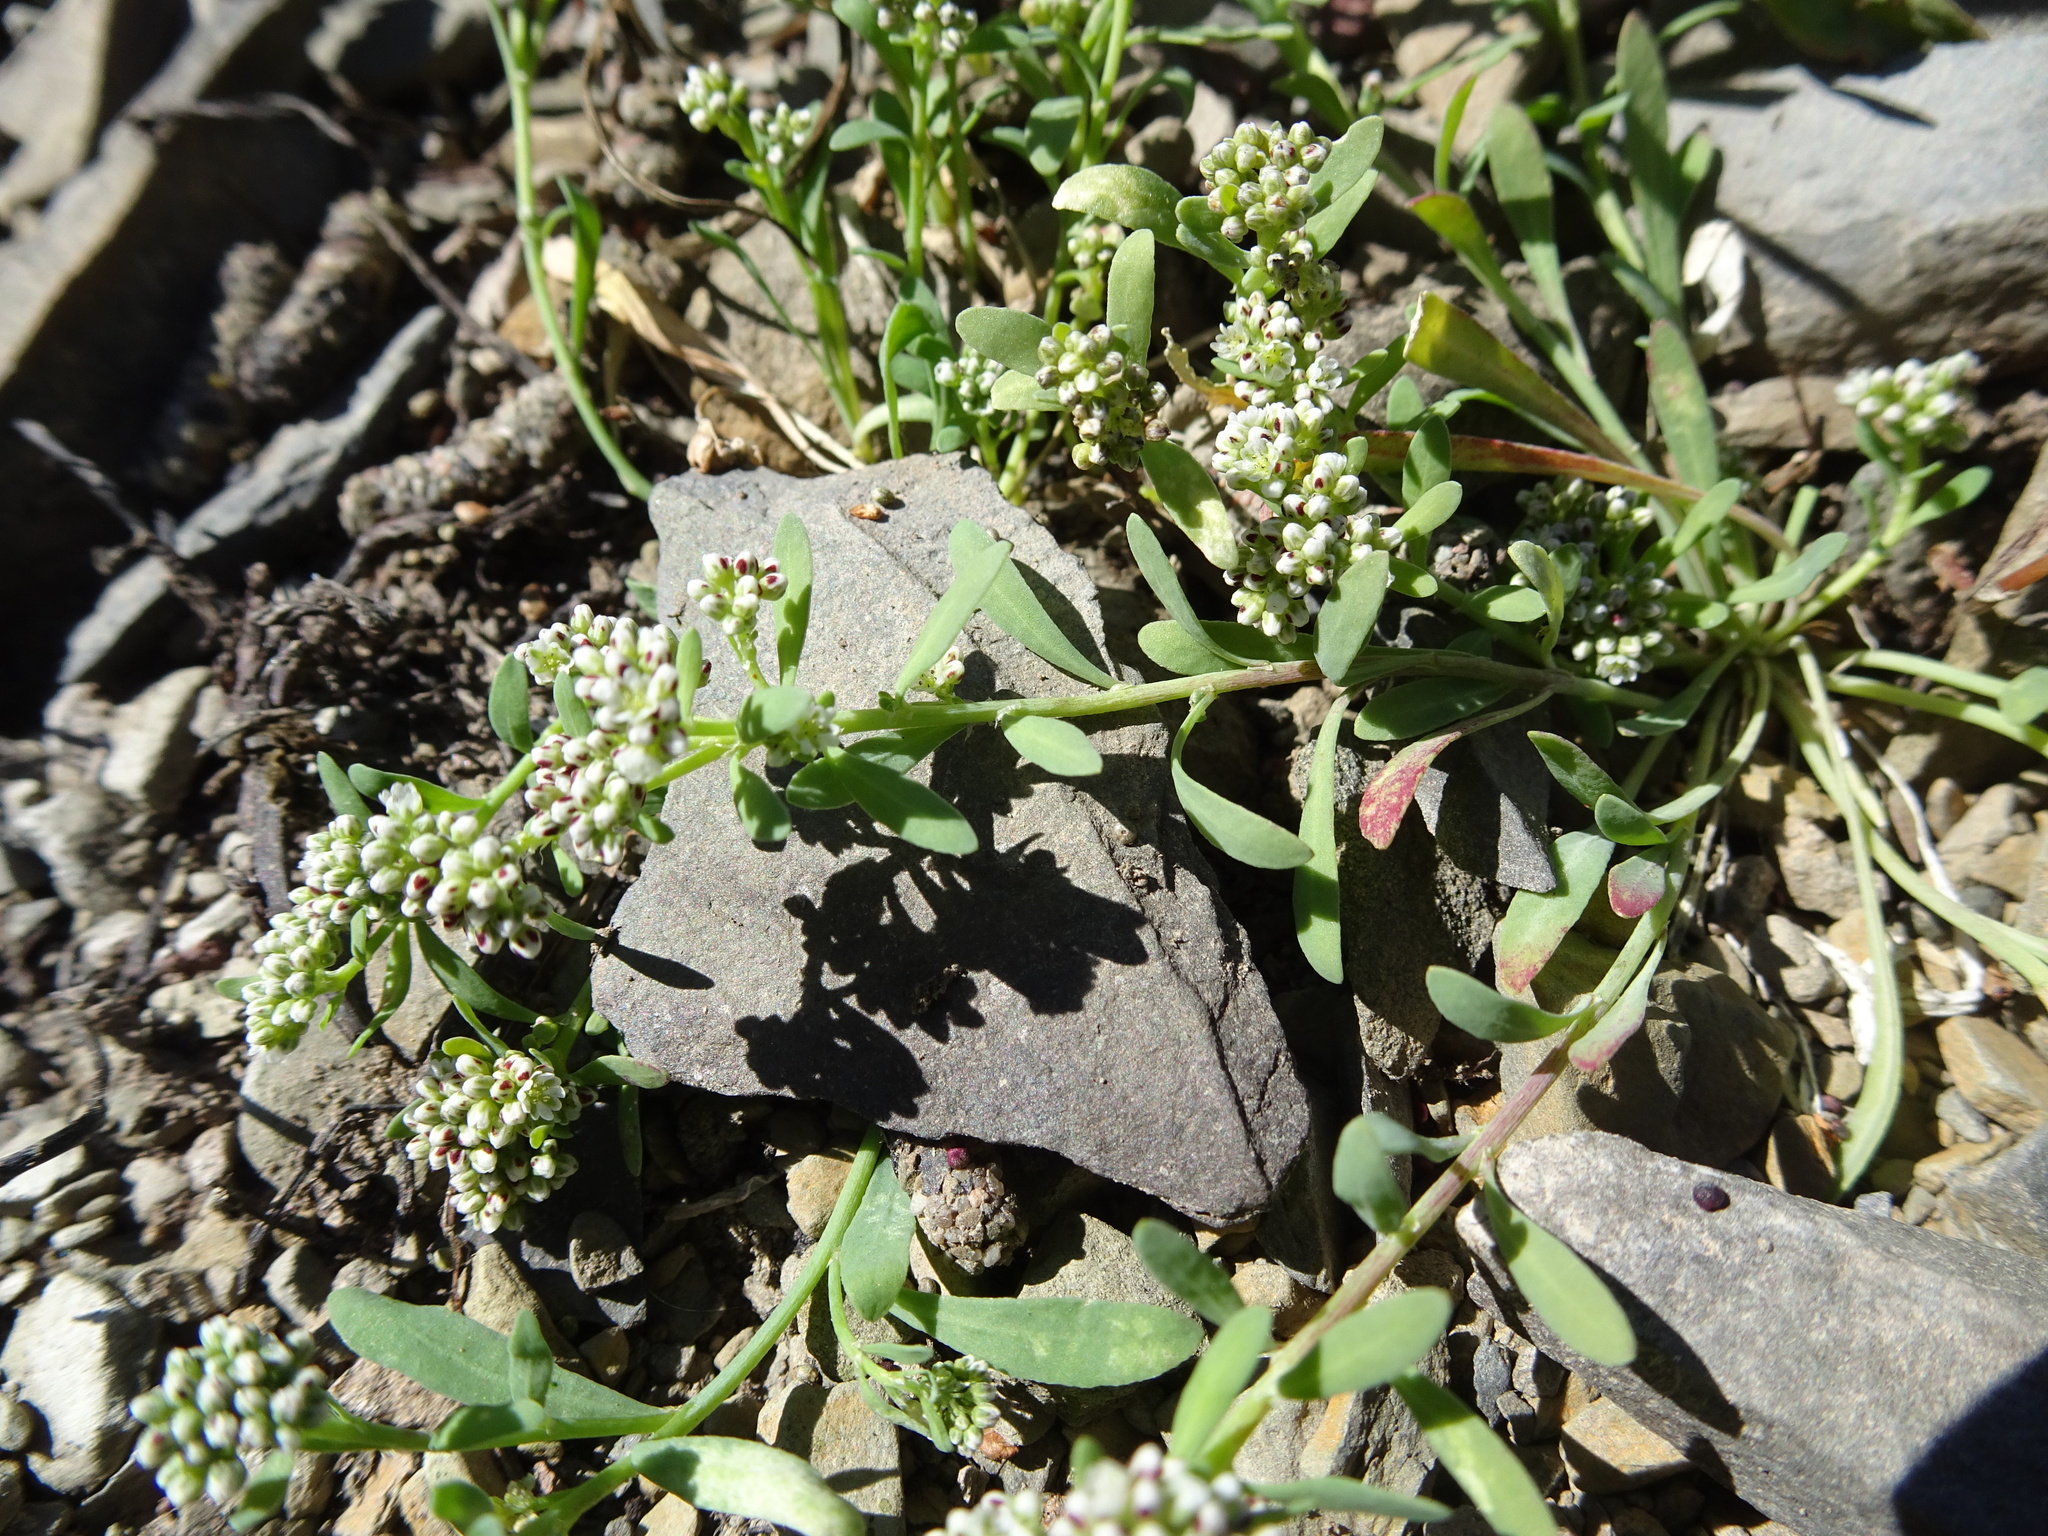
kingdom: Plantae
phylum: Tracheophyta
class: Magnoliopsida
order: Caryophyllales
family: Caryophyllaceae
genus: Corrigiola
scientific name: Corrigiola litoralis
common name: Strapwort
